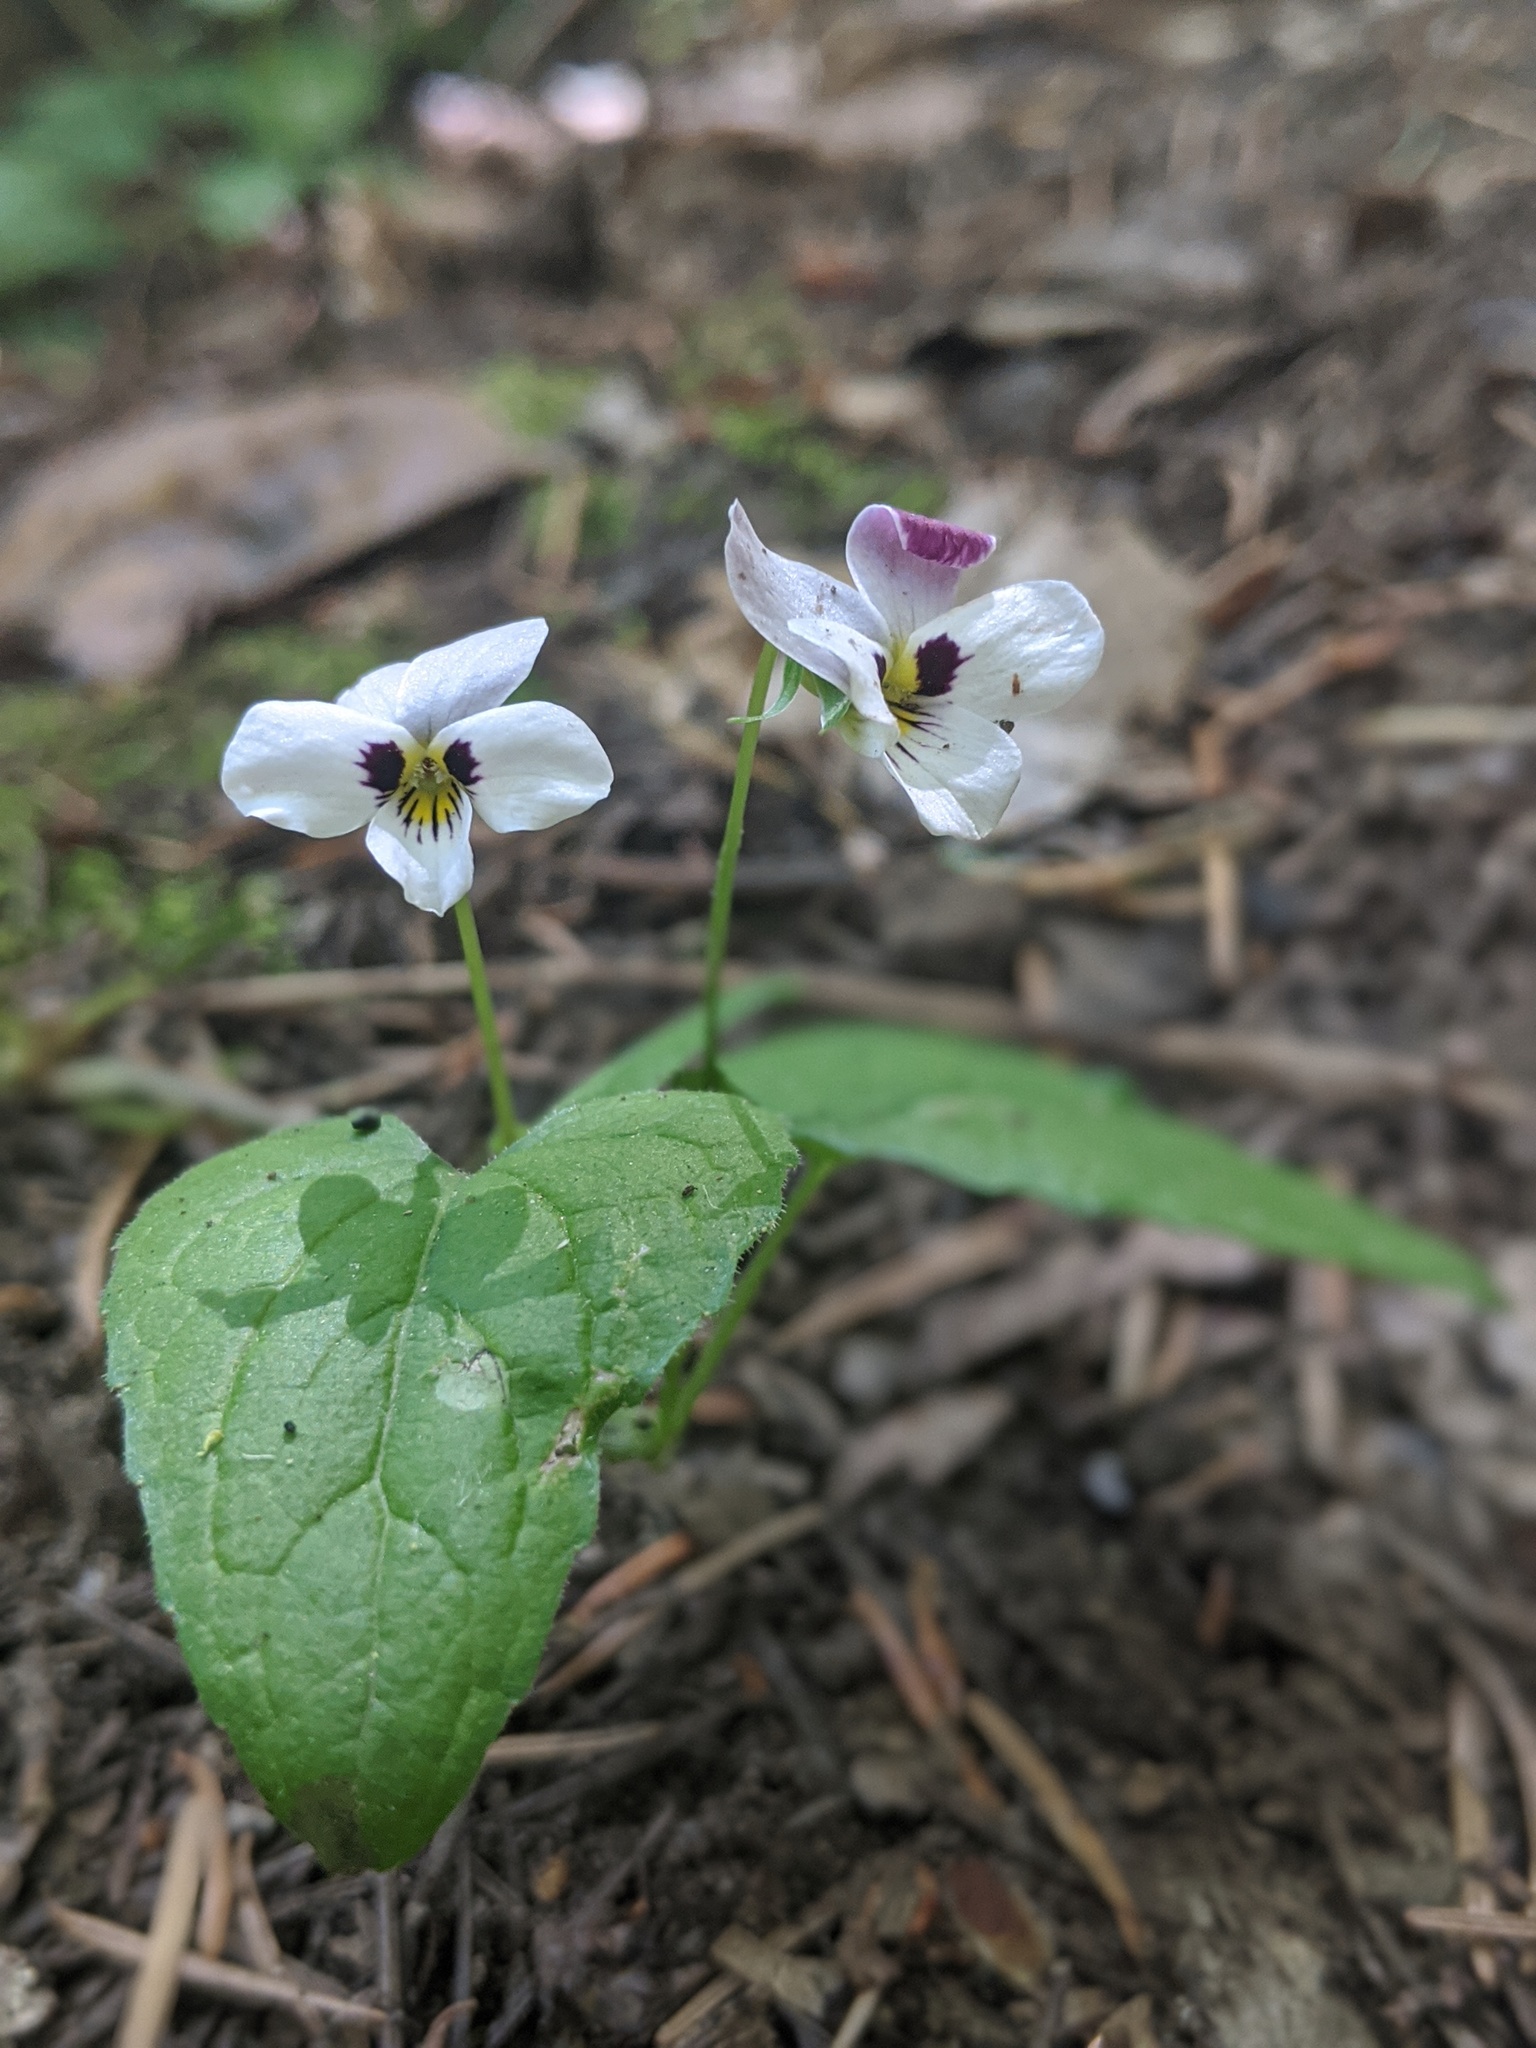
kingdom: Plantae
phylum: Tracheophyta
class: Magnoliopsida
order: Malpighiales
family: Violaceae
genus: Viola
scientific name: Viola ocellata
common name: Western heart's ease
